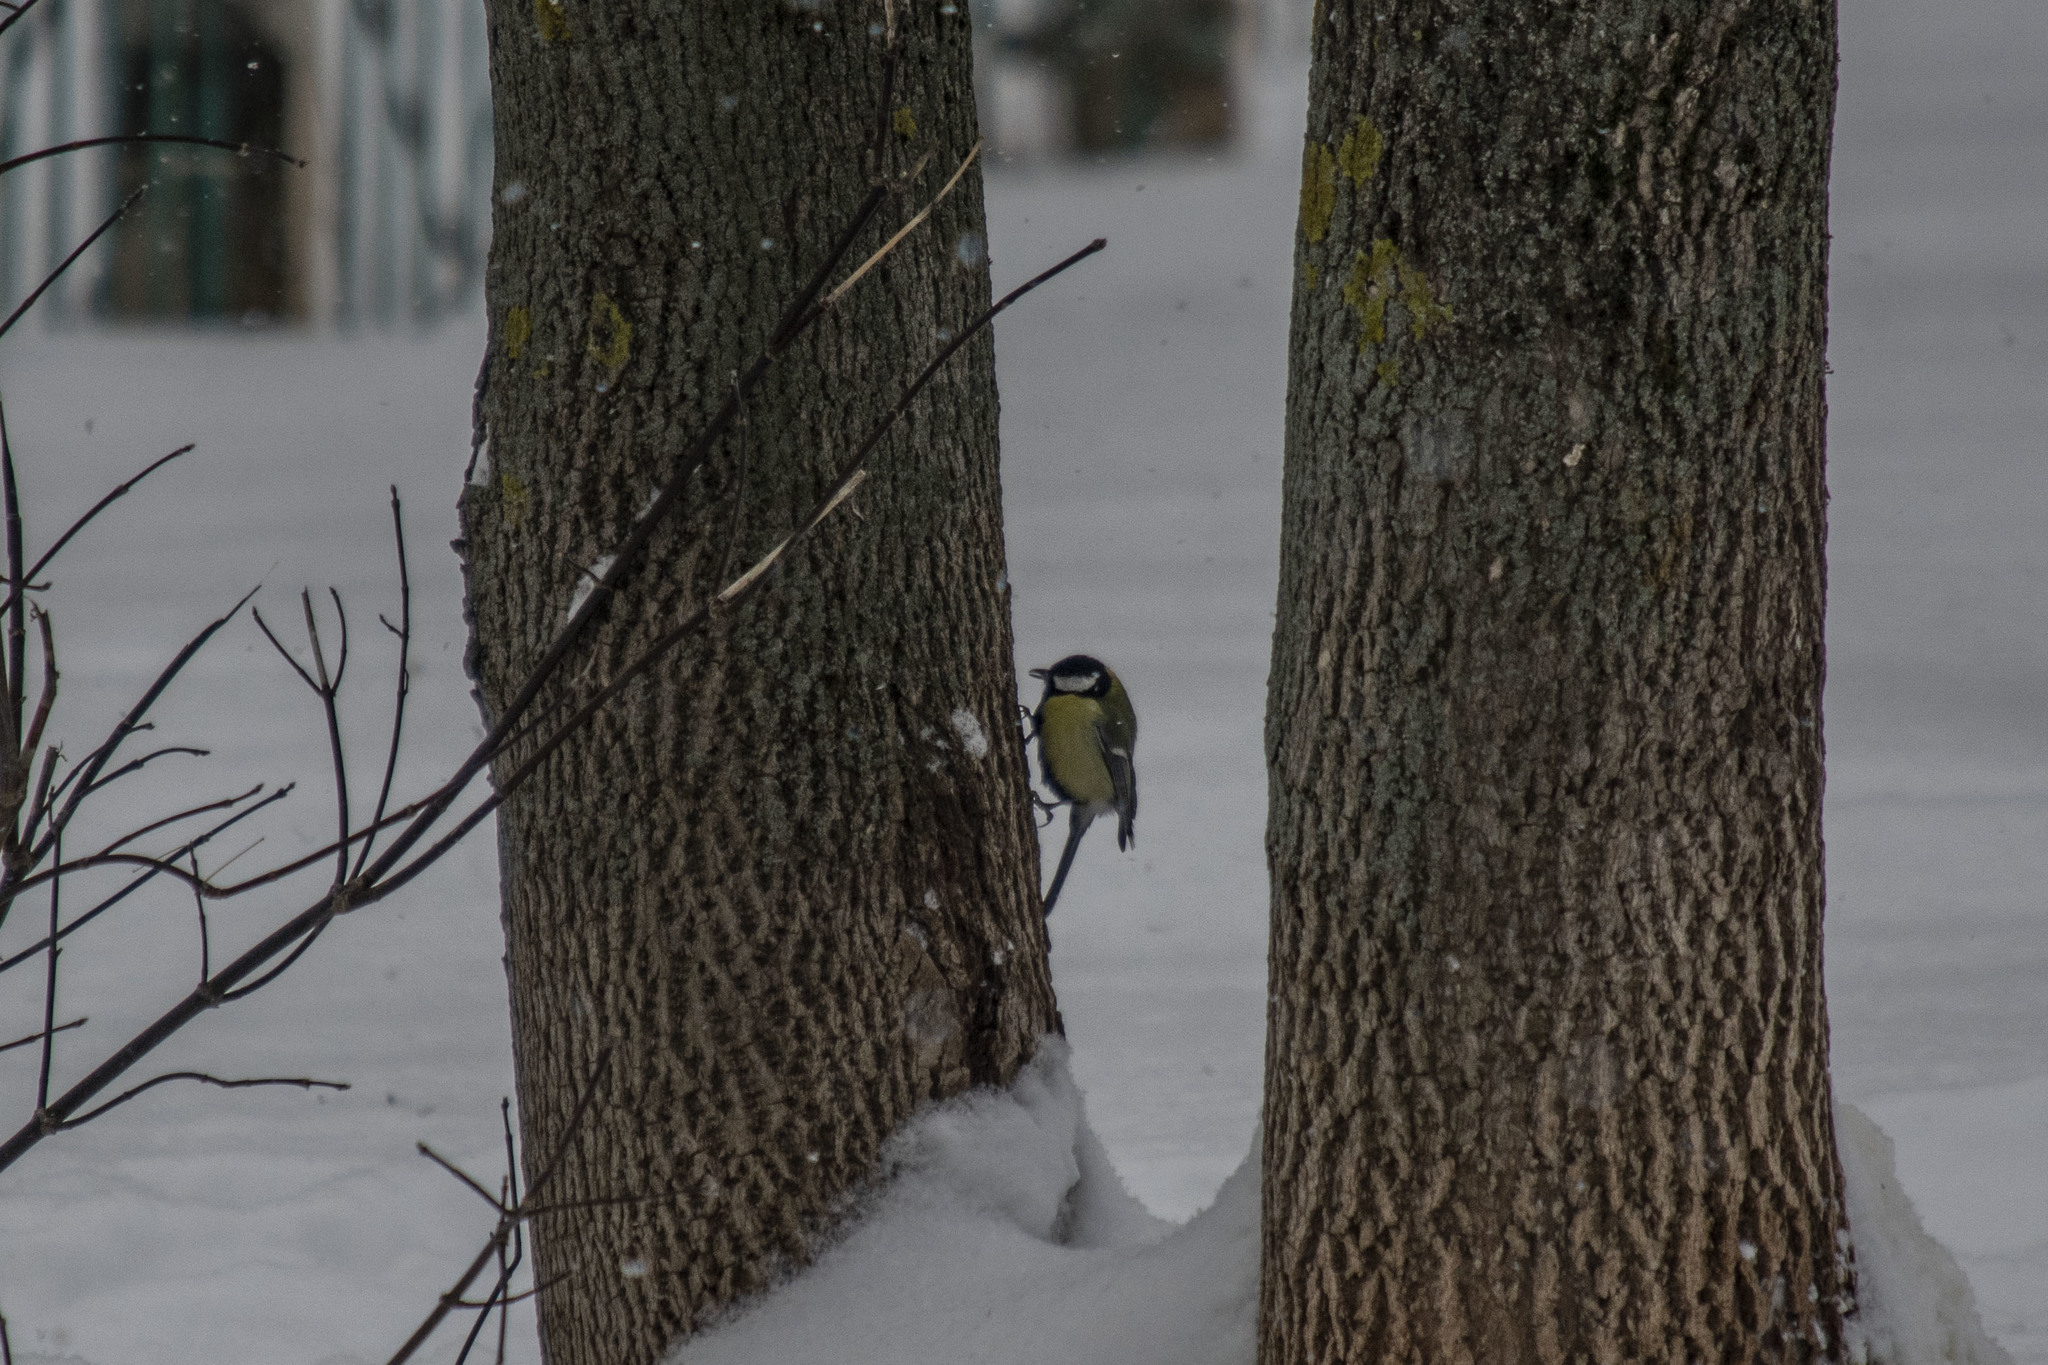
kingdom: Animalia
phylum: Chordata
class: Aves
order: Passeriformes
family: Paridae
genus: Parus
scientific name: Parus major
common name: Great tit
